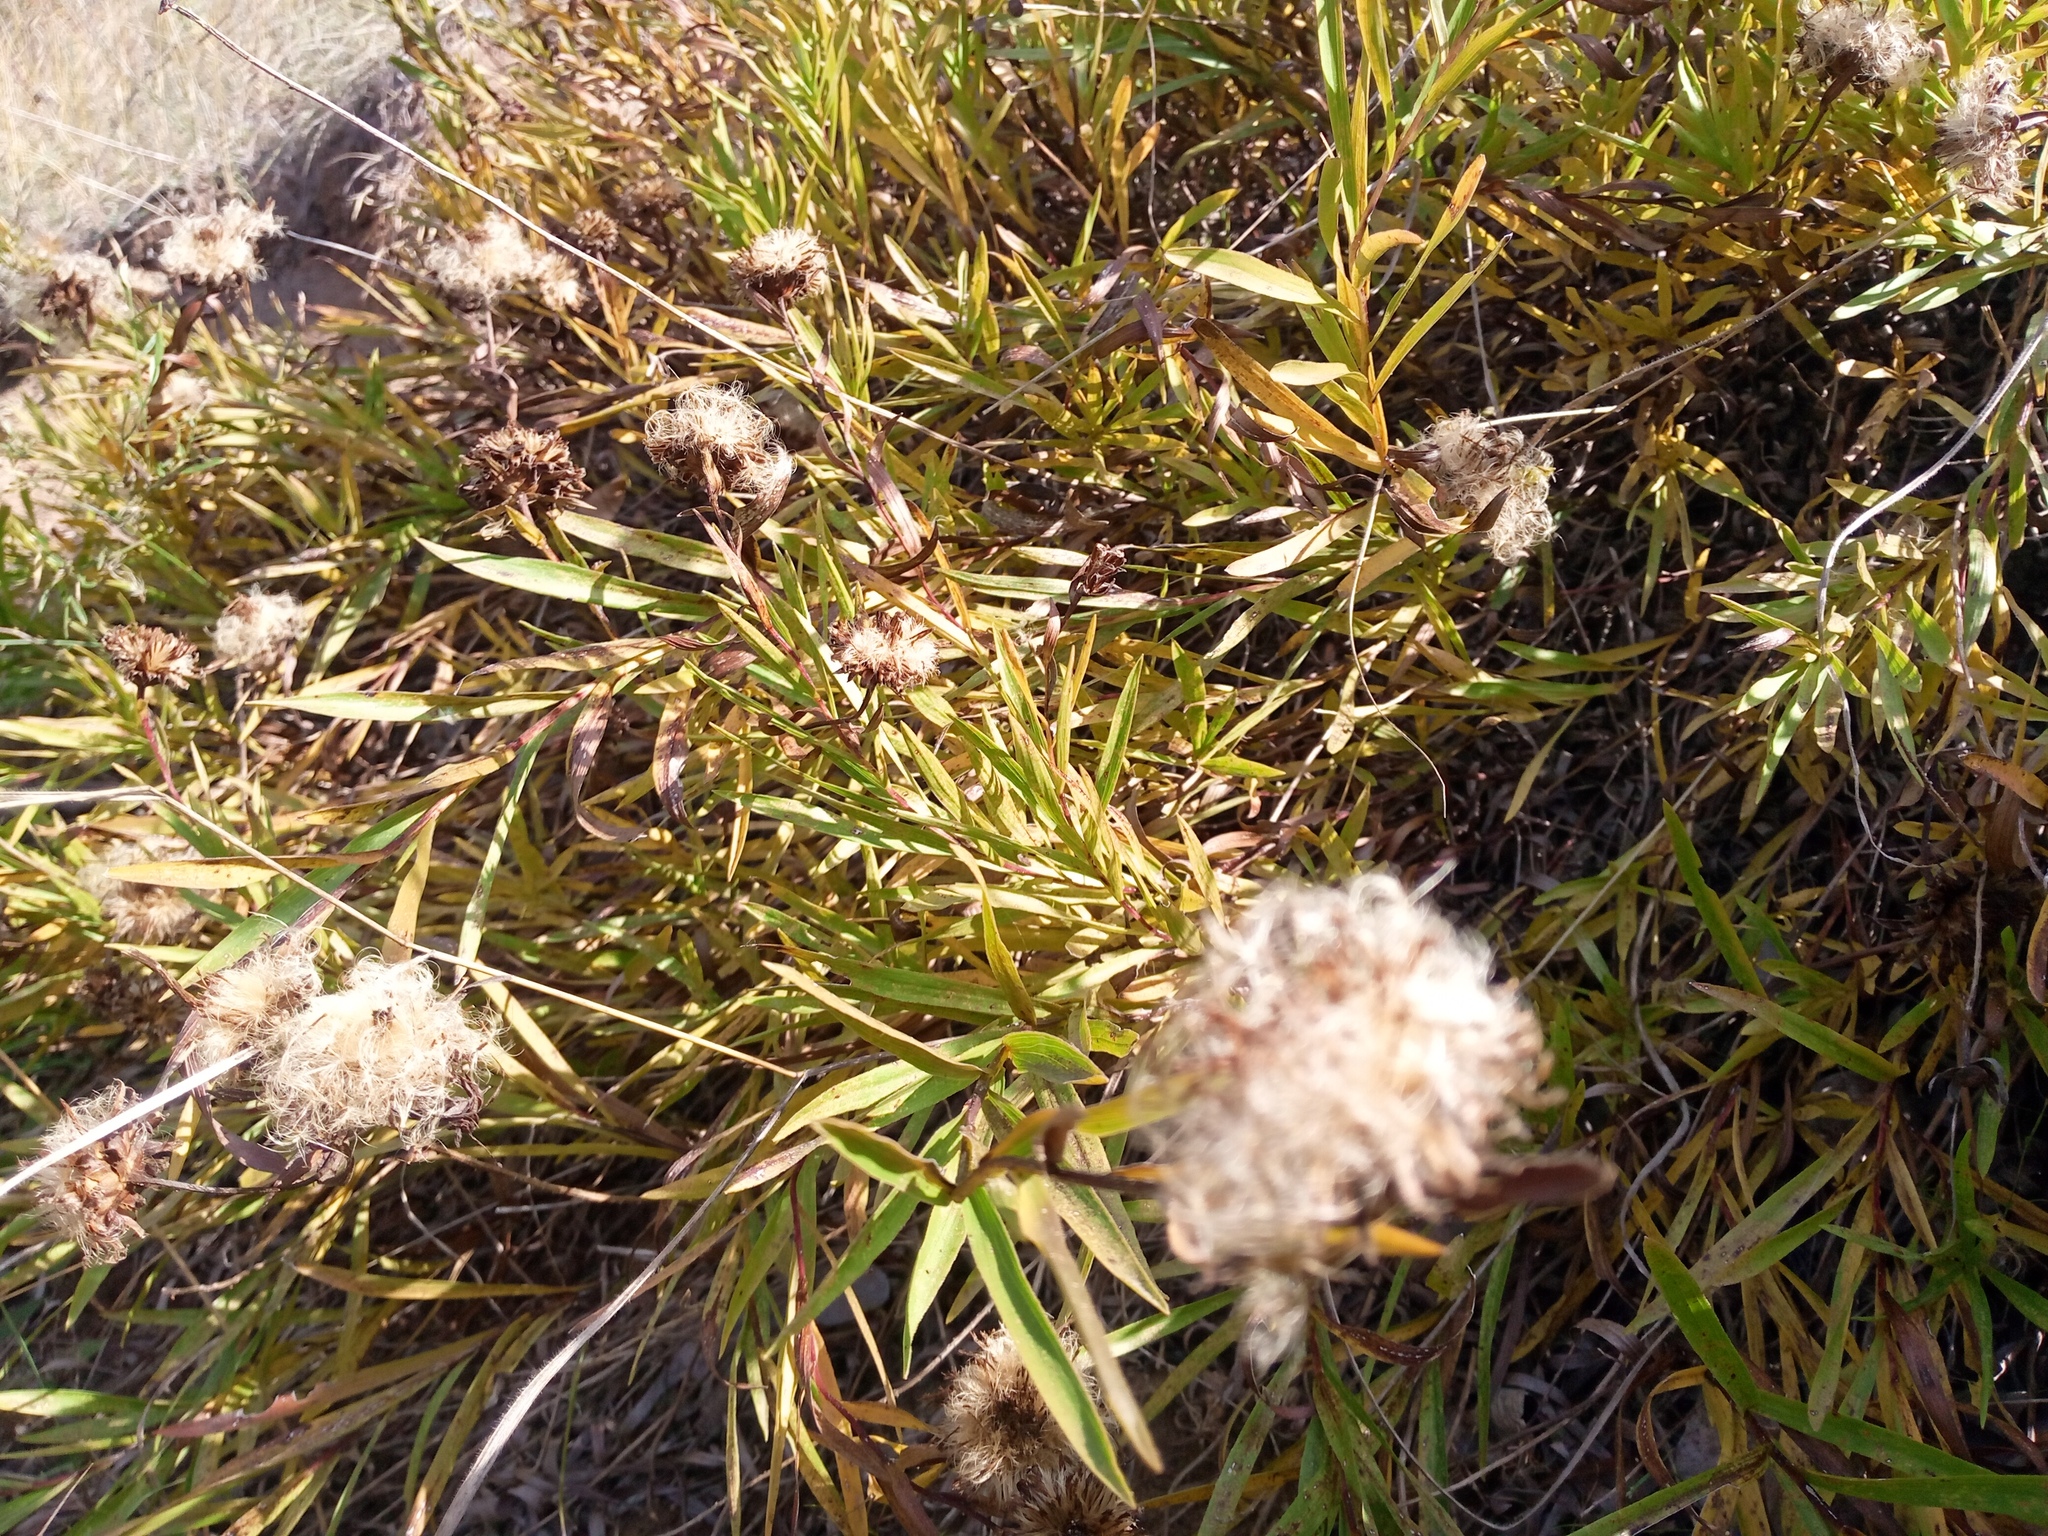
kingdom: Plantae
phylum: Tracheophyta
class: Magnoliopsida
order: Asterales
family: Asteraceae
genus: Pentanema
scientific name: Pentanema ensifolium
